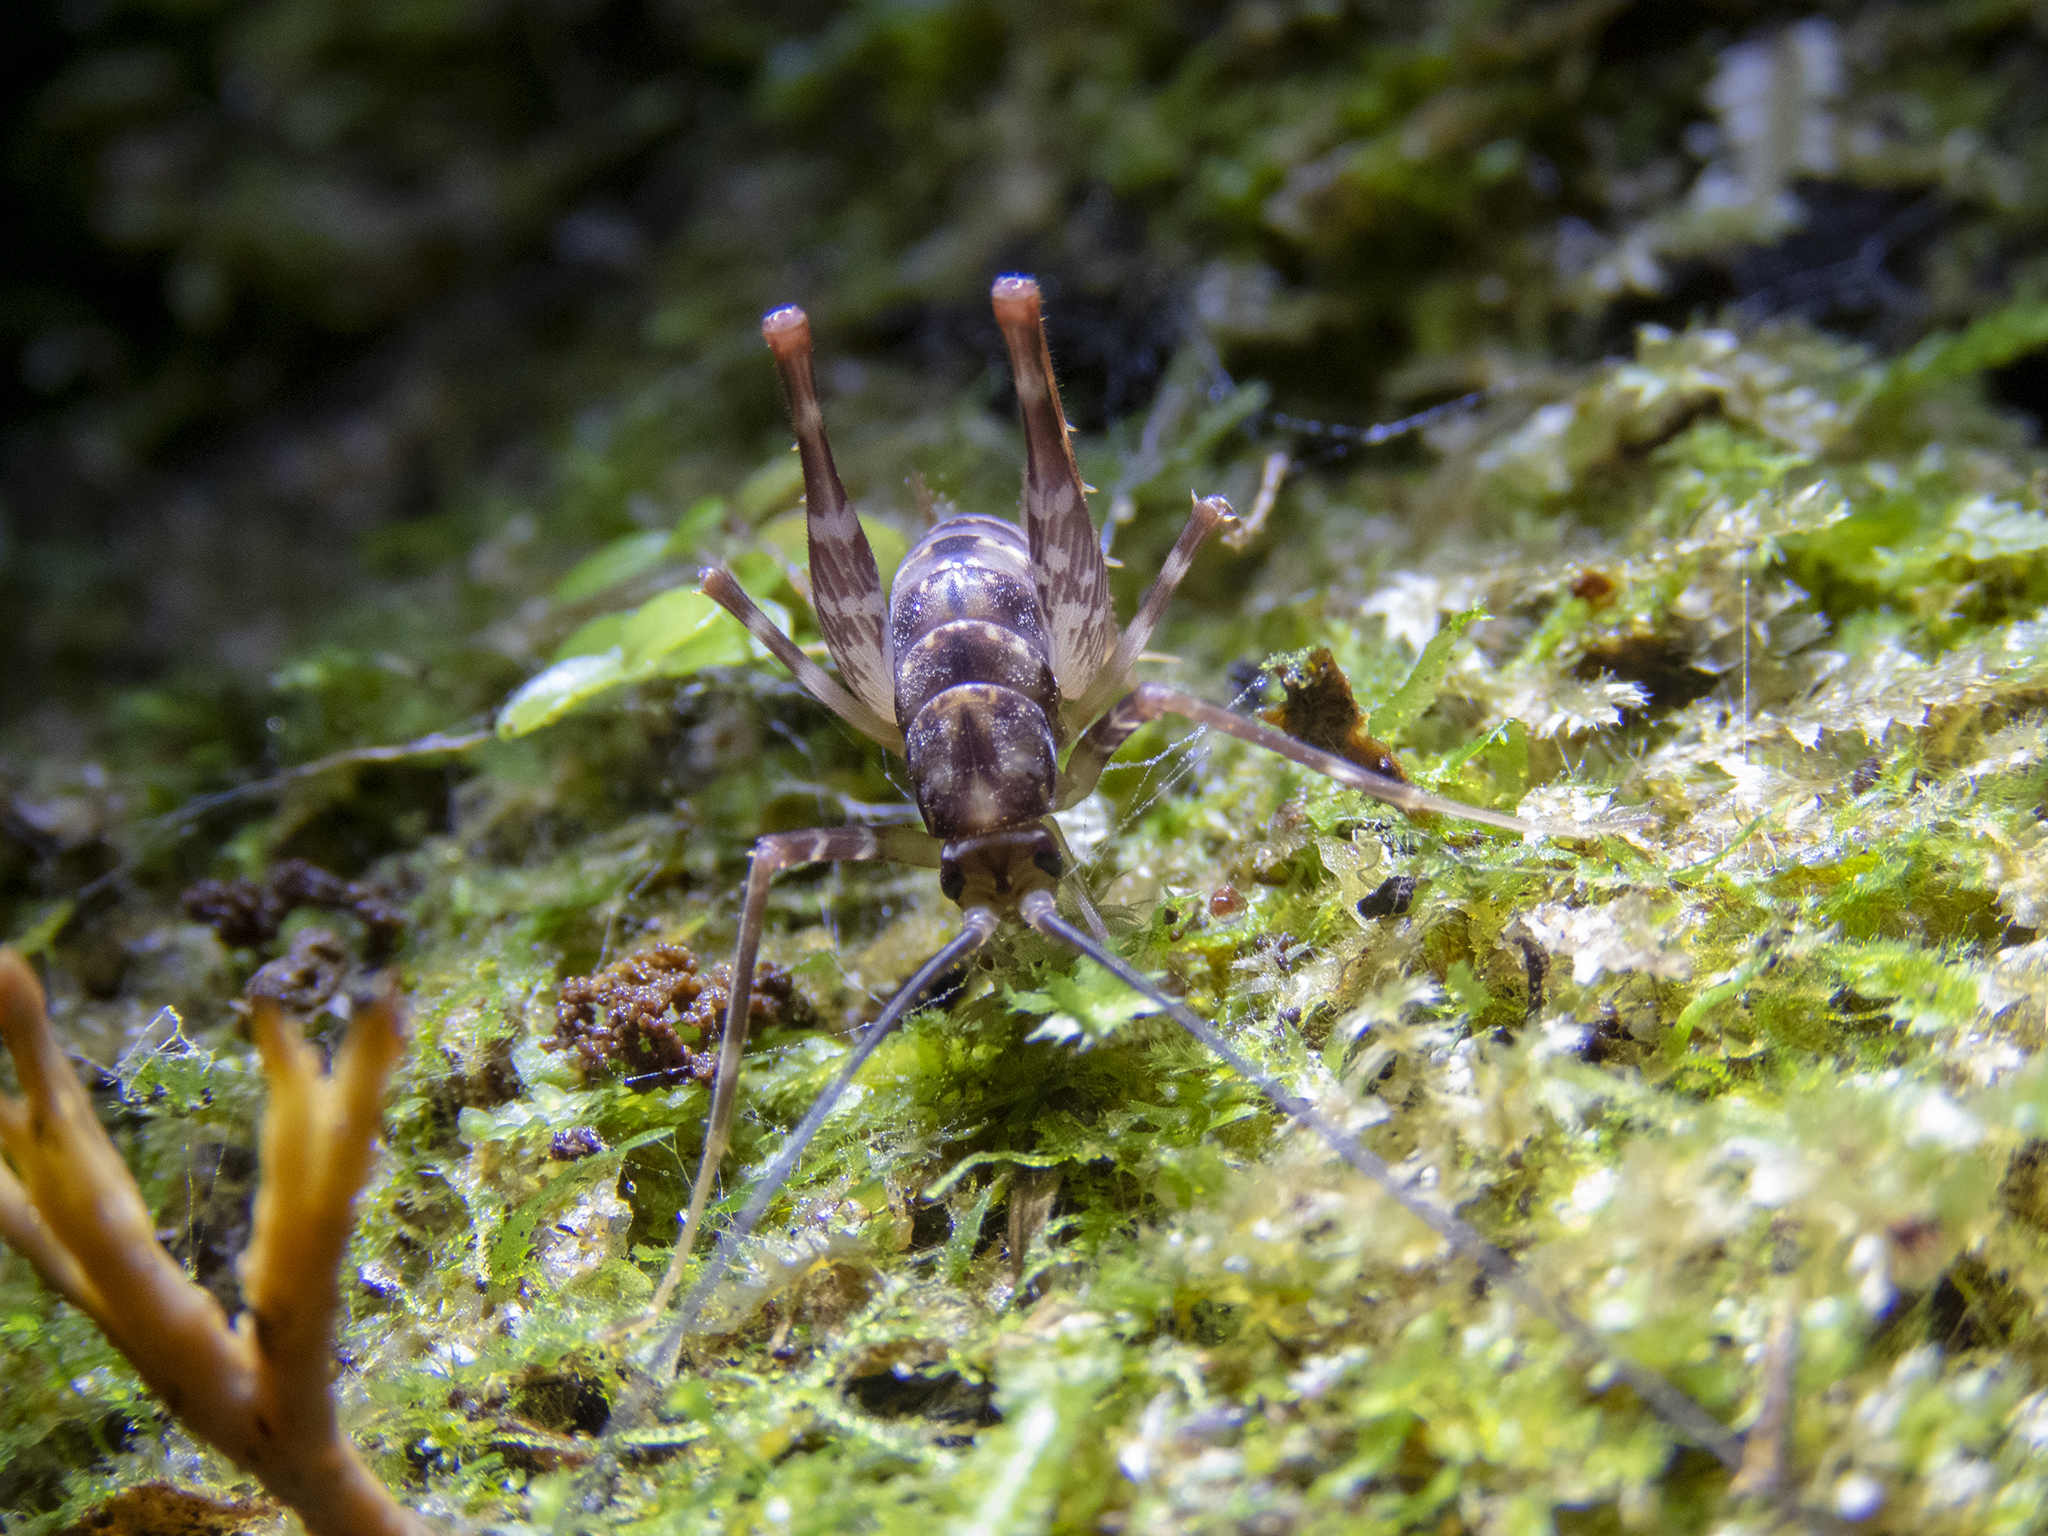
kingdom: Animalia
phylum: Arthropoda
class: Insecta
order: Orthoptera
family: Rhaphidophoridae
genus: Miotopus
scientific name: Miotopus richardsae
